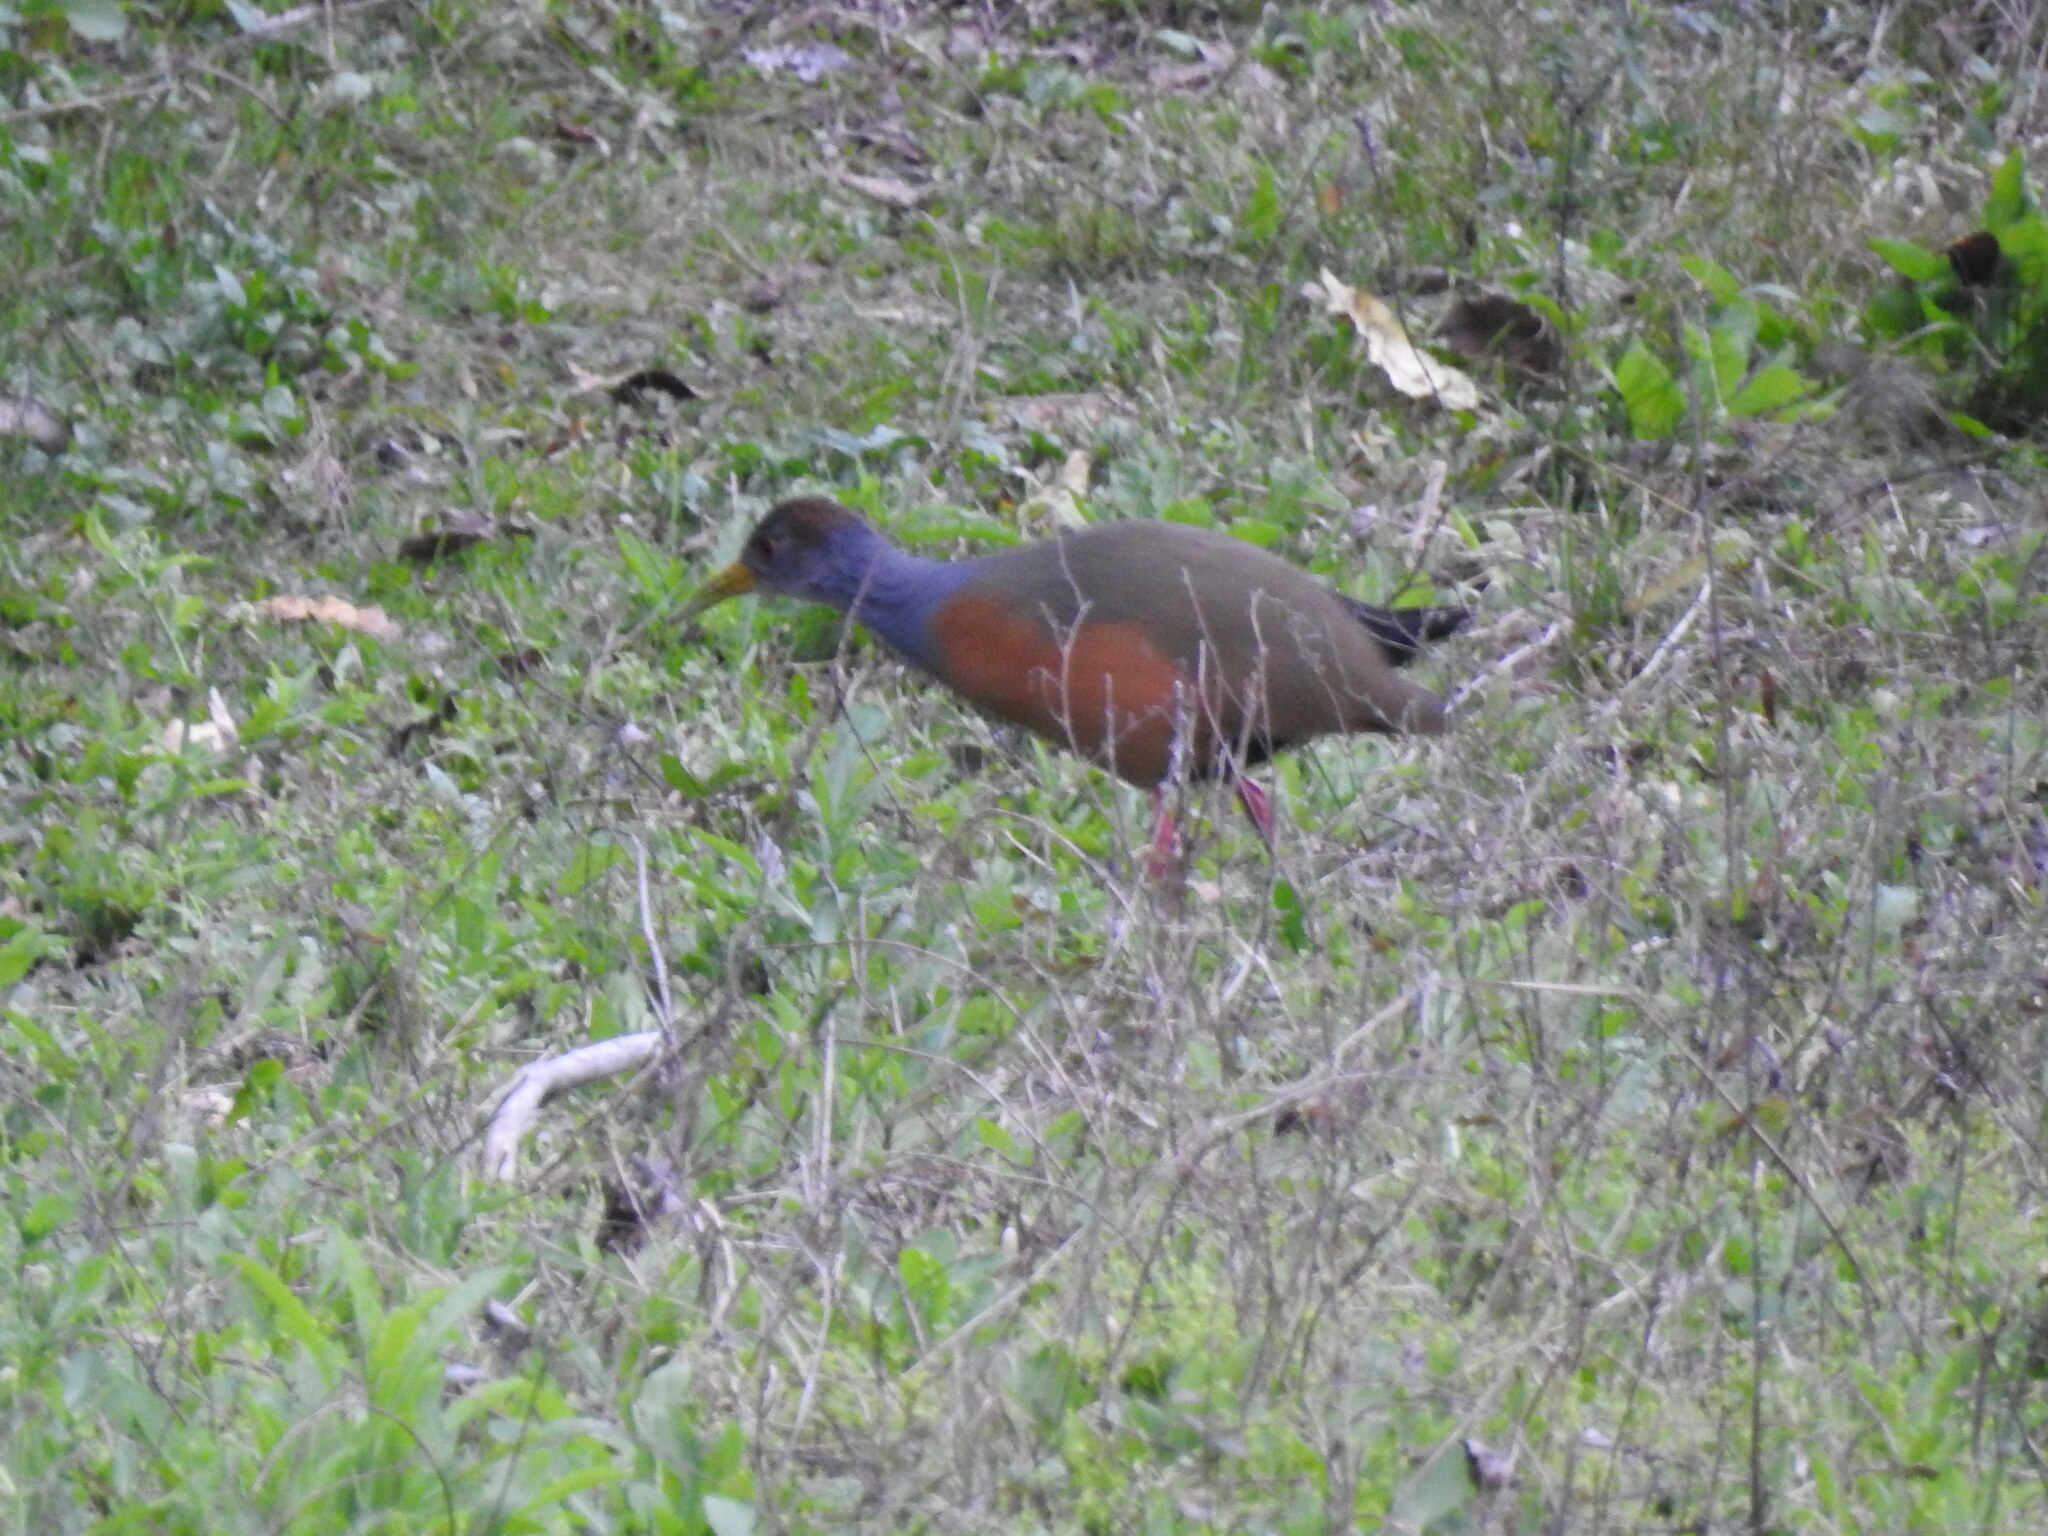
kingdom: Animalia
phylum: Chordata
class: Aves
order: Gruiformes
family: Rallidae
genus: Aramides
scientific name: Aramides cajanea
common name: Gray-necked wood-rail
